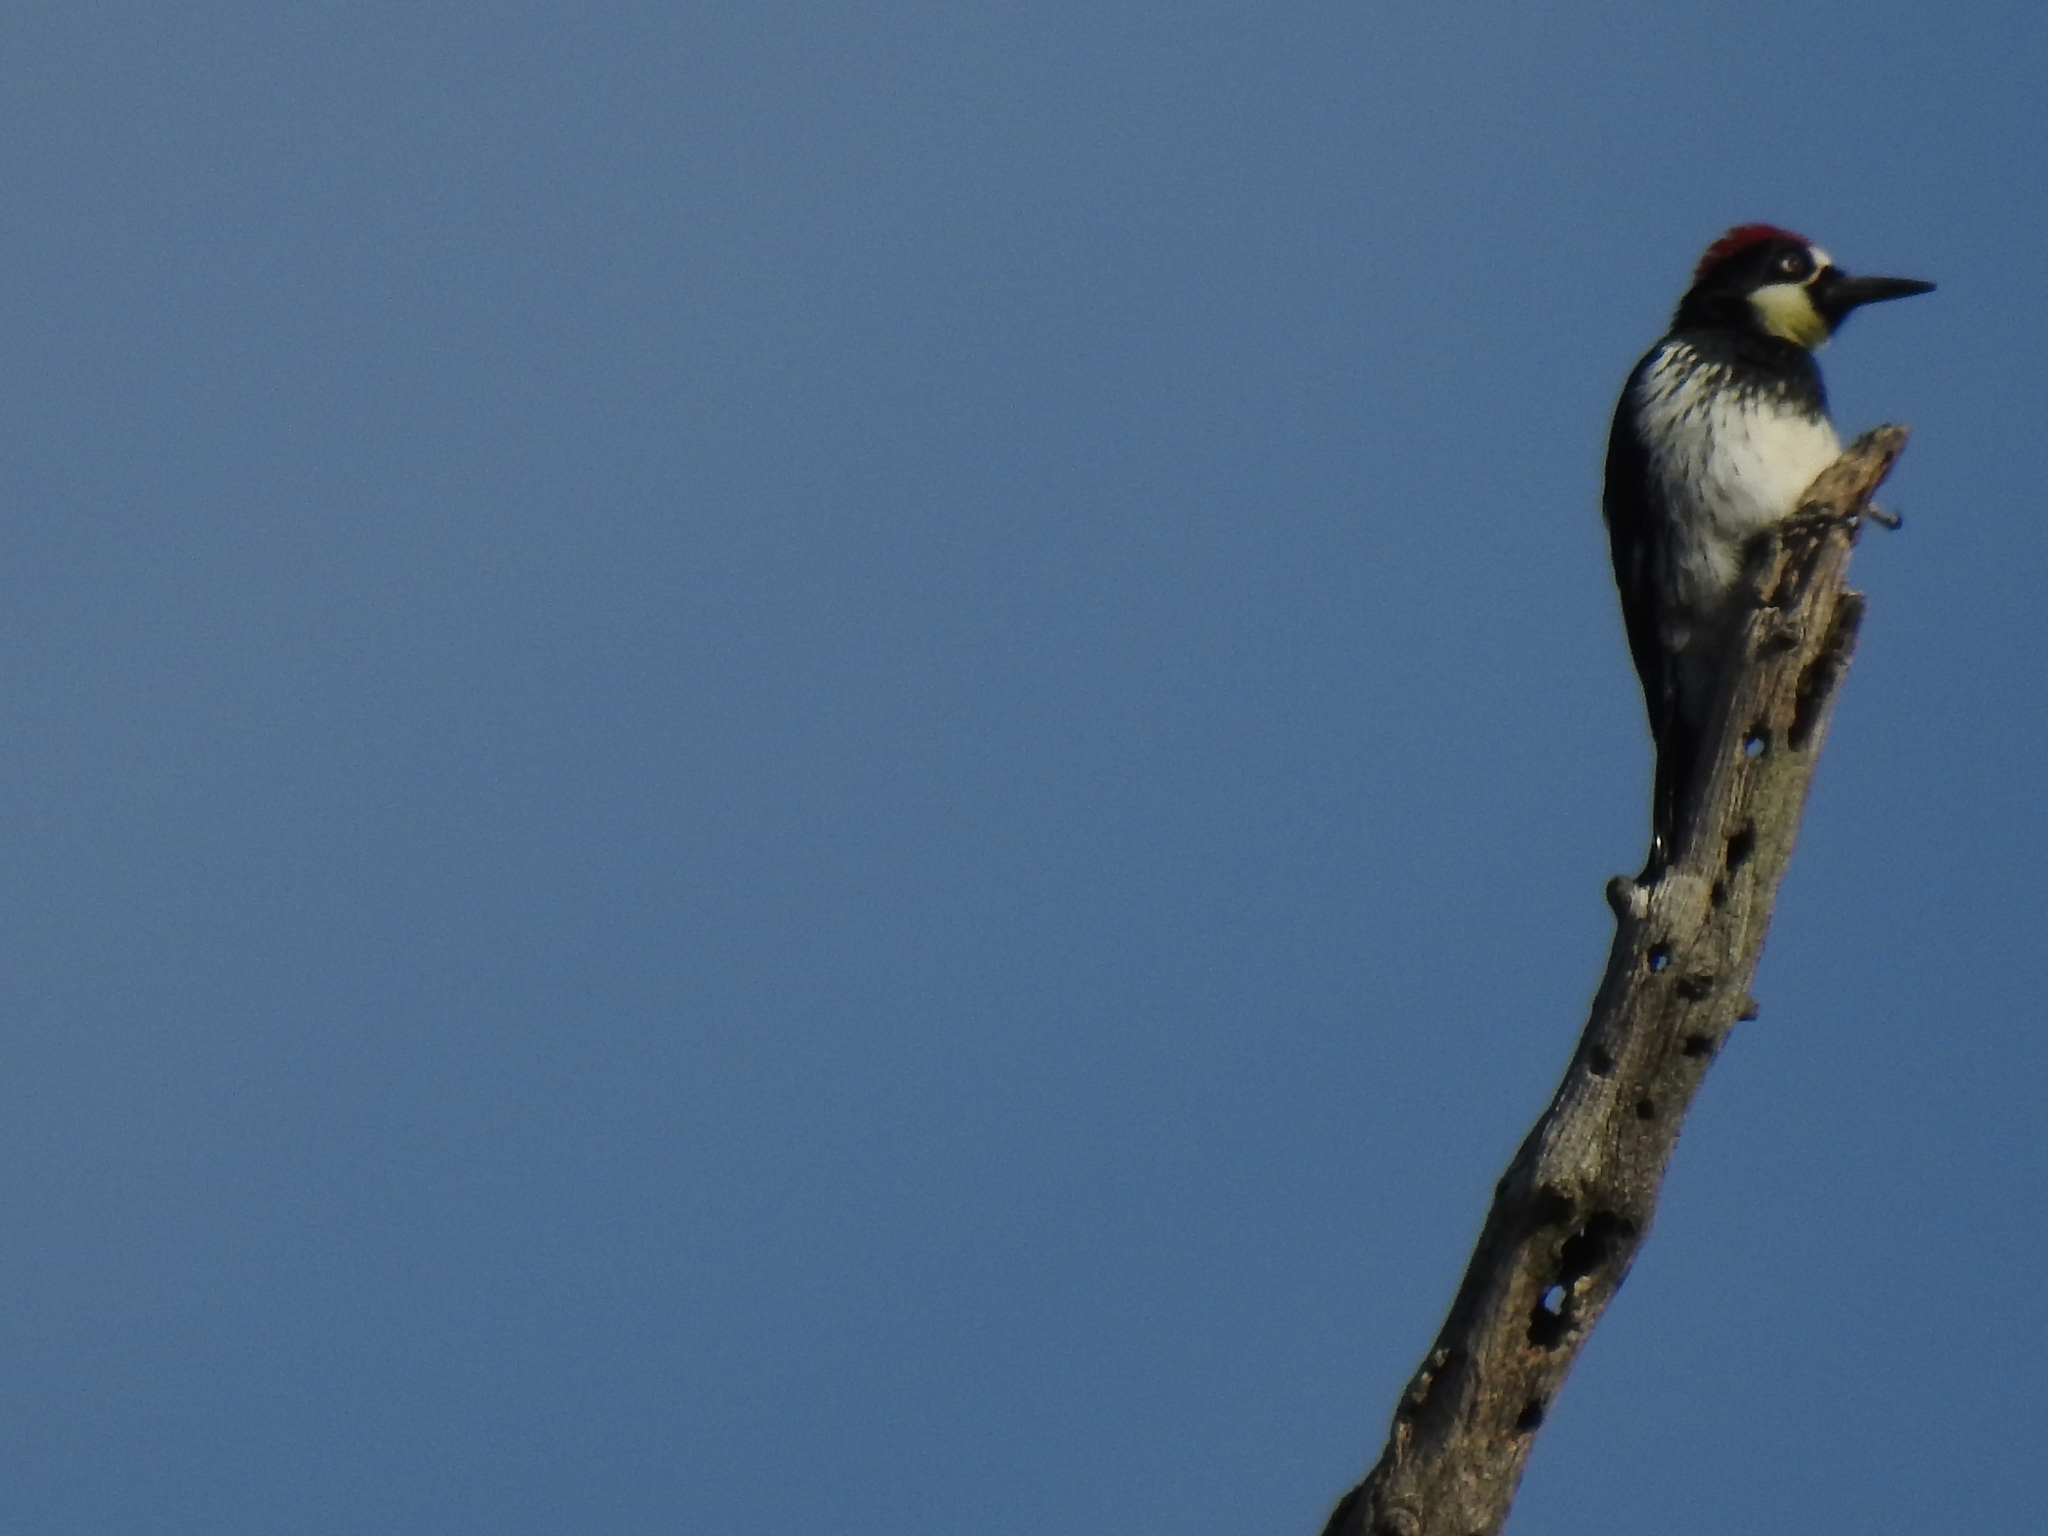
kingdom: Animalia
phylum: Chordata
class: Aves
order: Piciformes
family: Picidae
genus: Melanerpes
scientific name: Melanerpes formicivorus
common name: Acorn woodpecker
